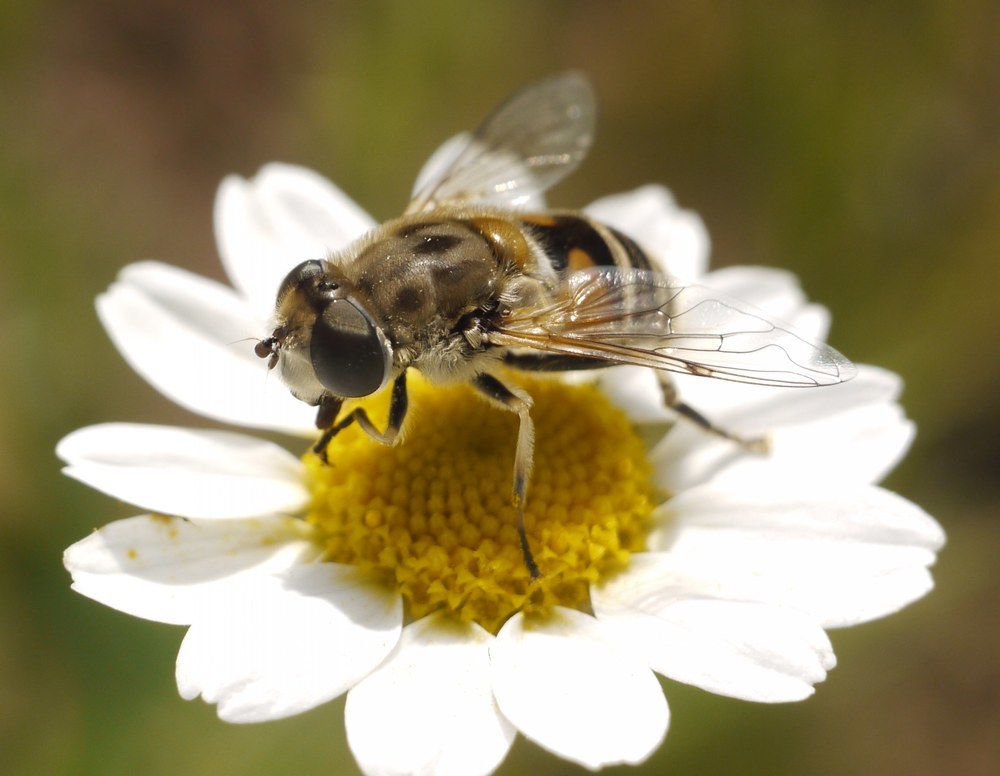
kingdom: Animalia
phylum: Arthropoda
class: Insecta
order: Diptera
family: Syrphidae
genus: Eristalis
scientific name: Eristalis arbustorum
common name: Hover fly
